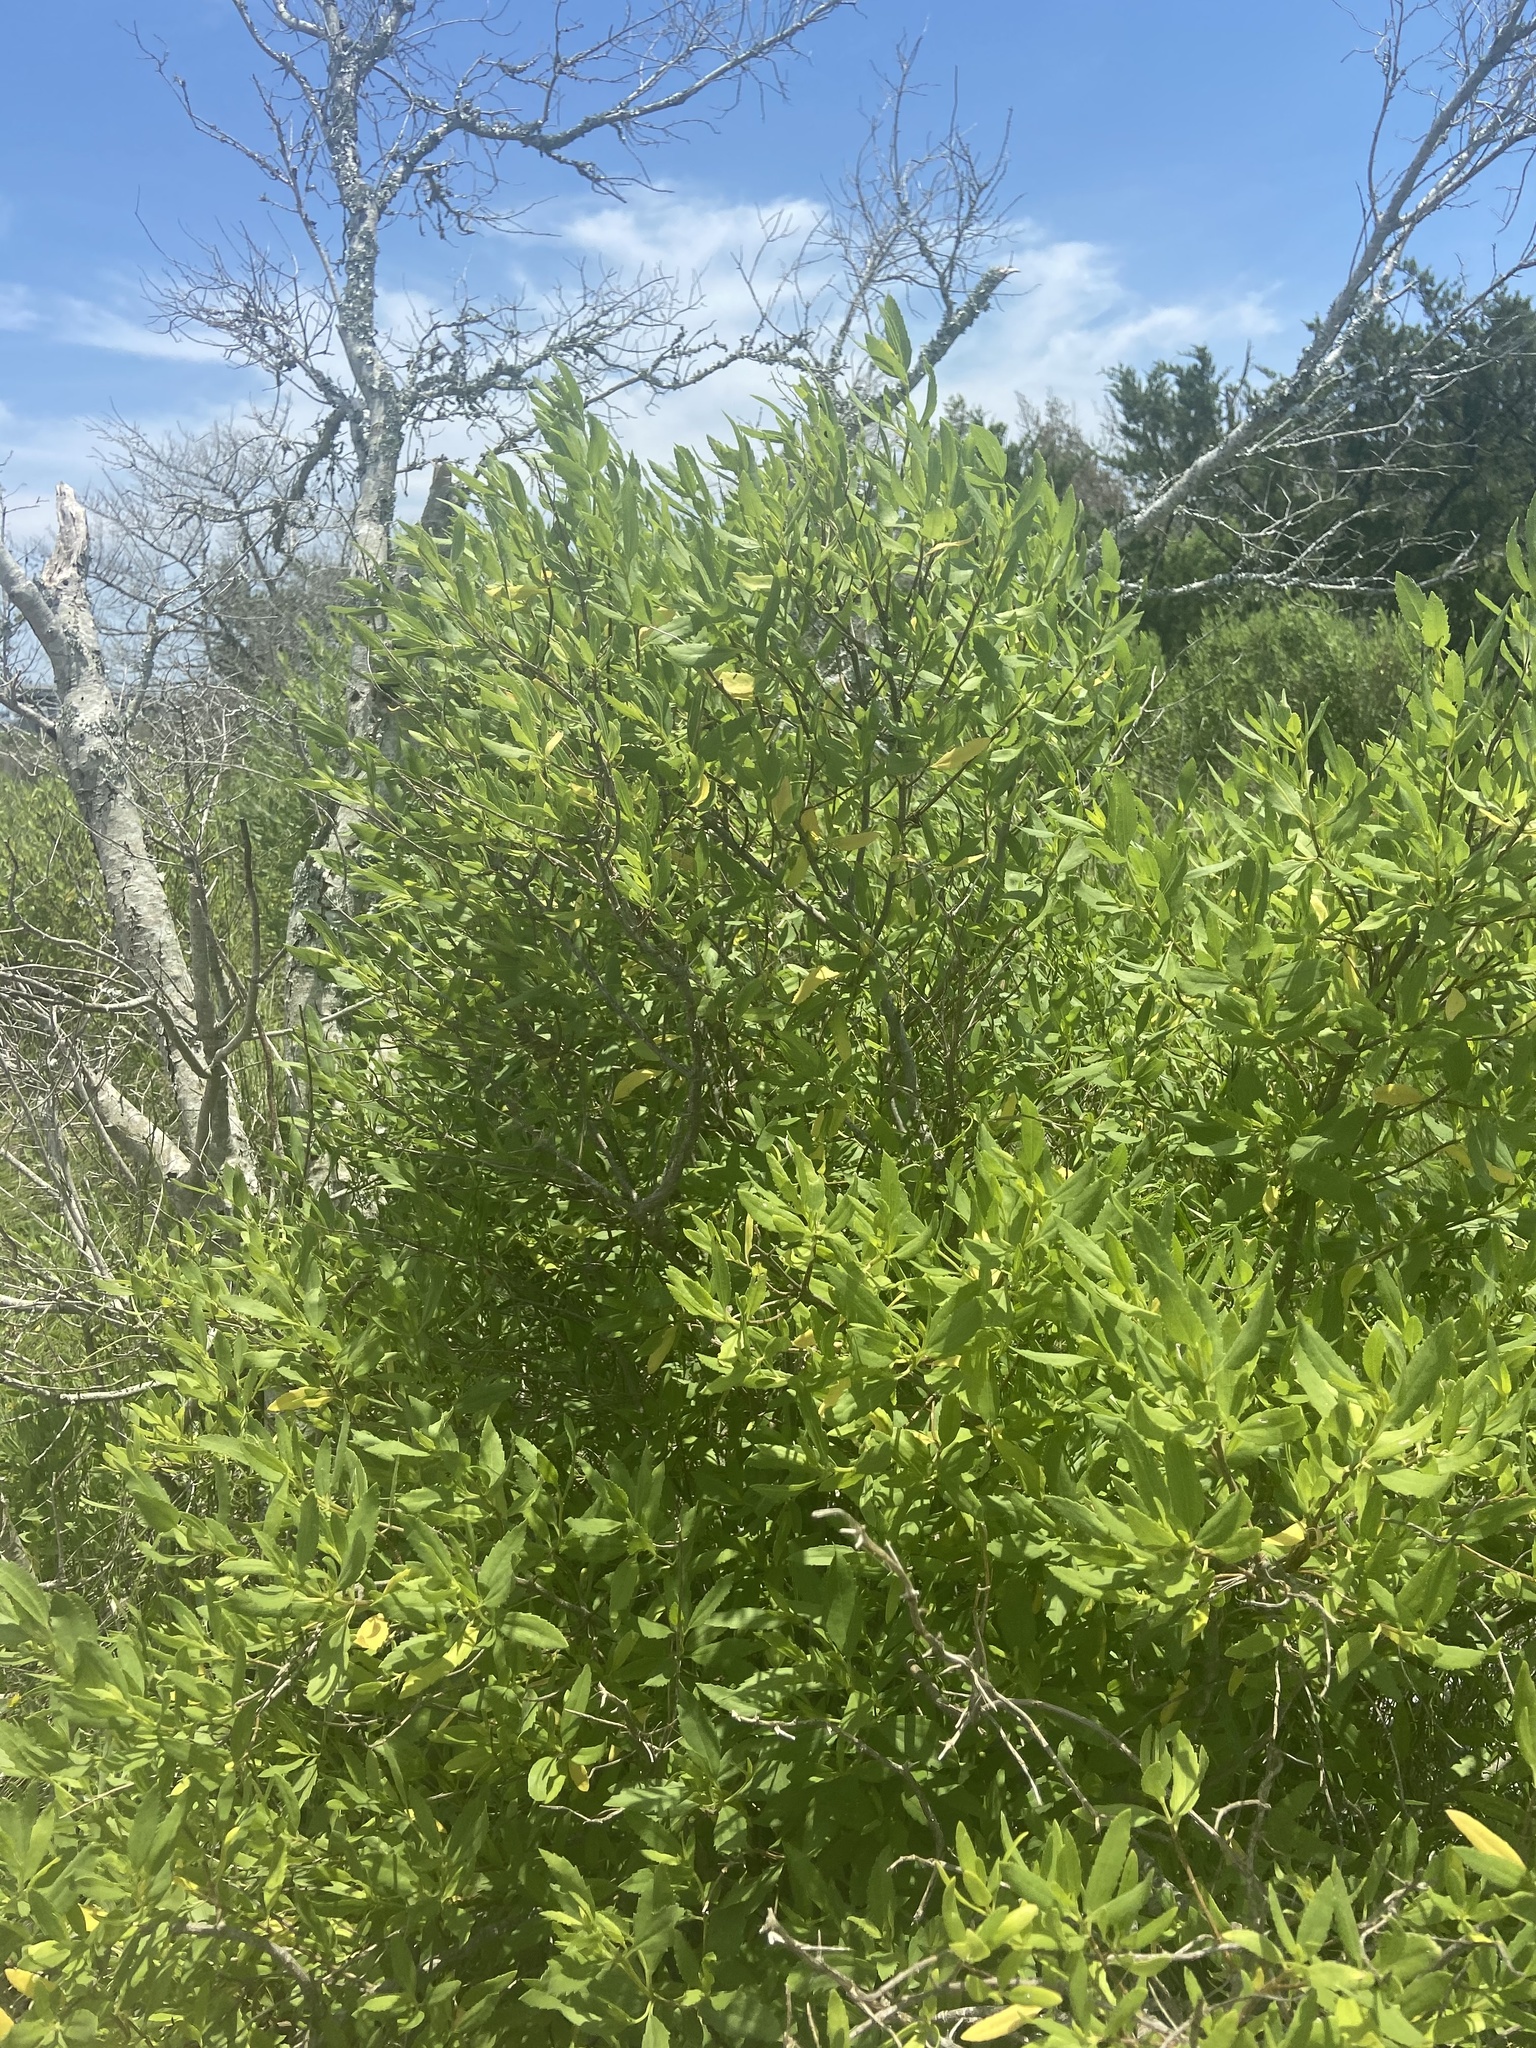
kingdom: Plantae
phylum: Tracheophyta
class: Magnoliopsida
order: Asterales
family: Asteraceae
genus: Iva
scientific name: Iva frutescens
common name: Big-leaved marsh-elder
